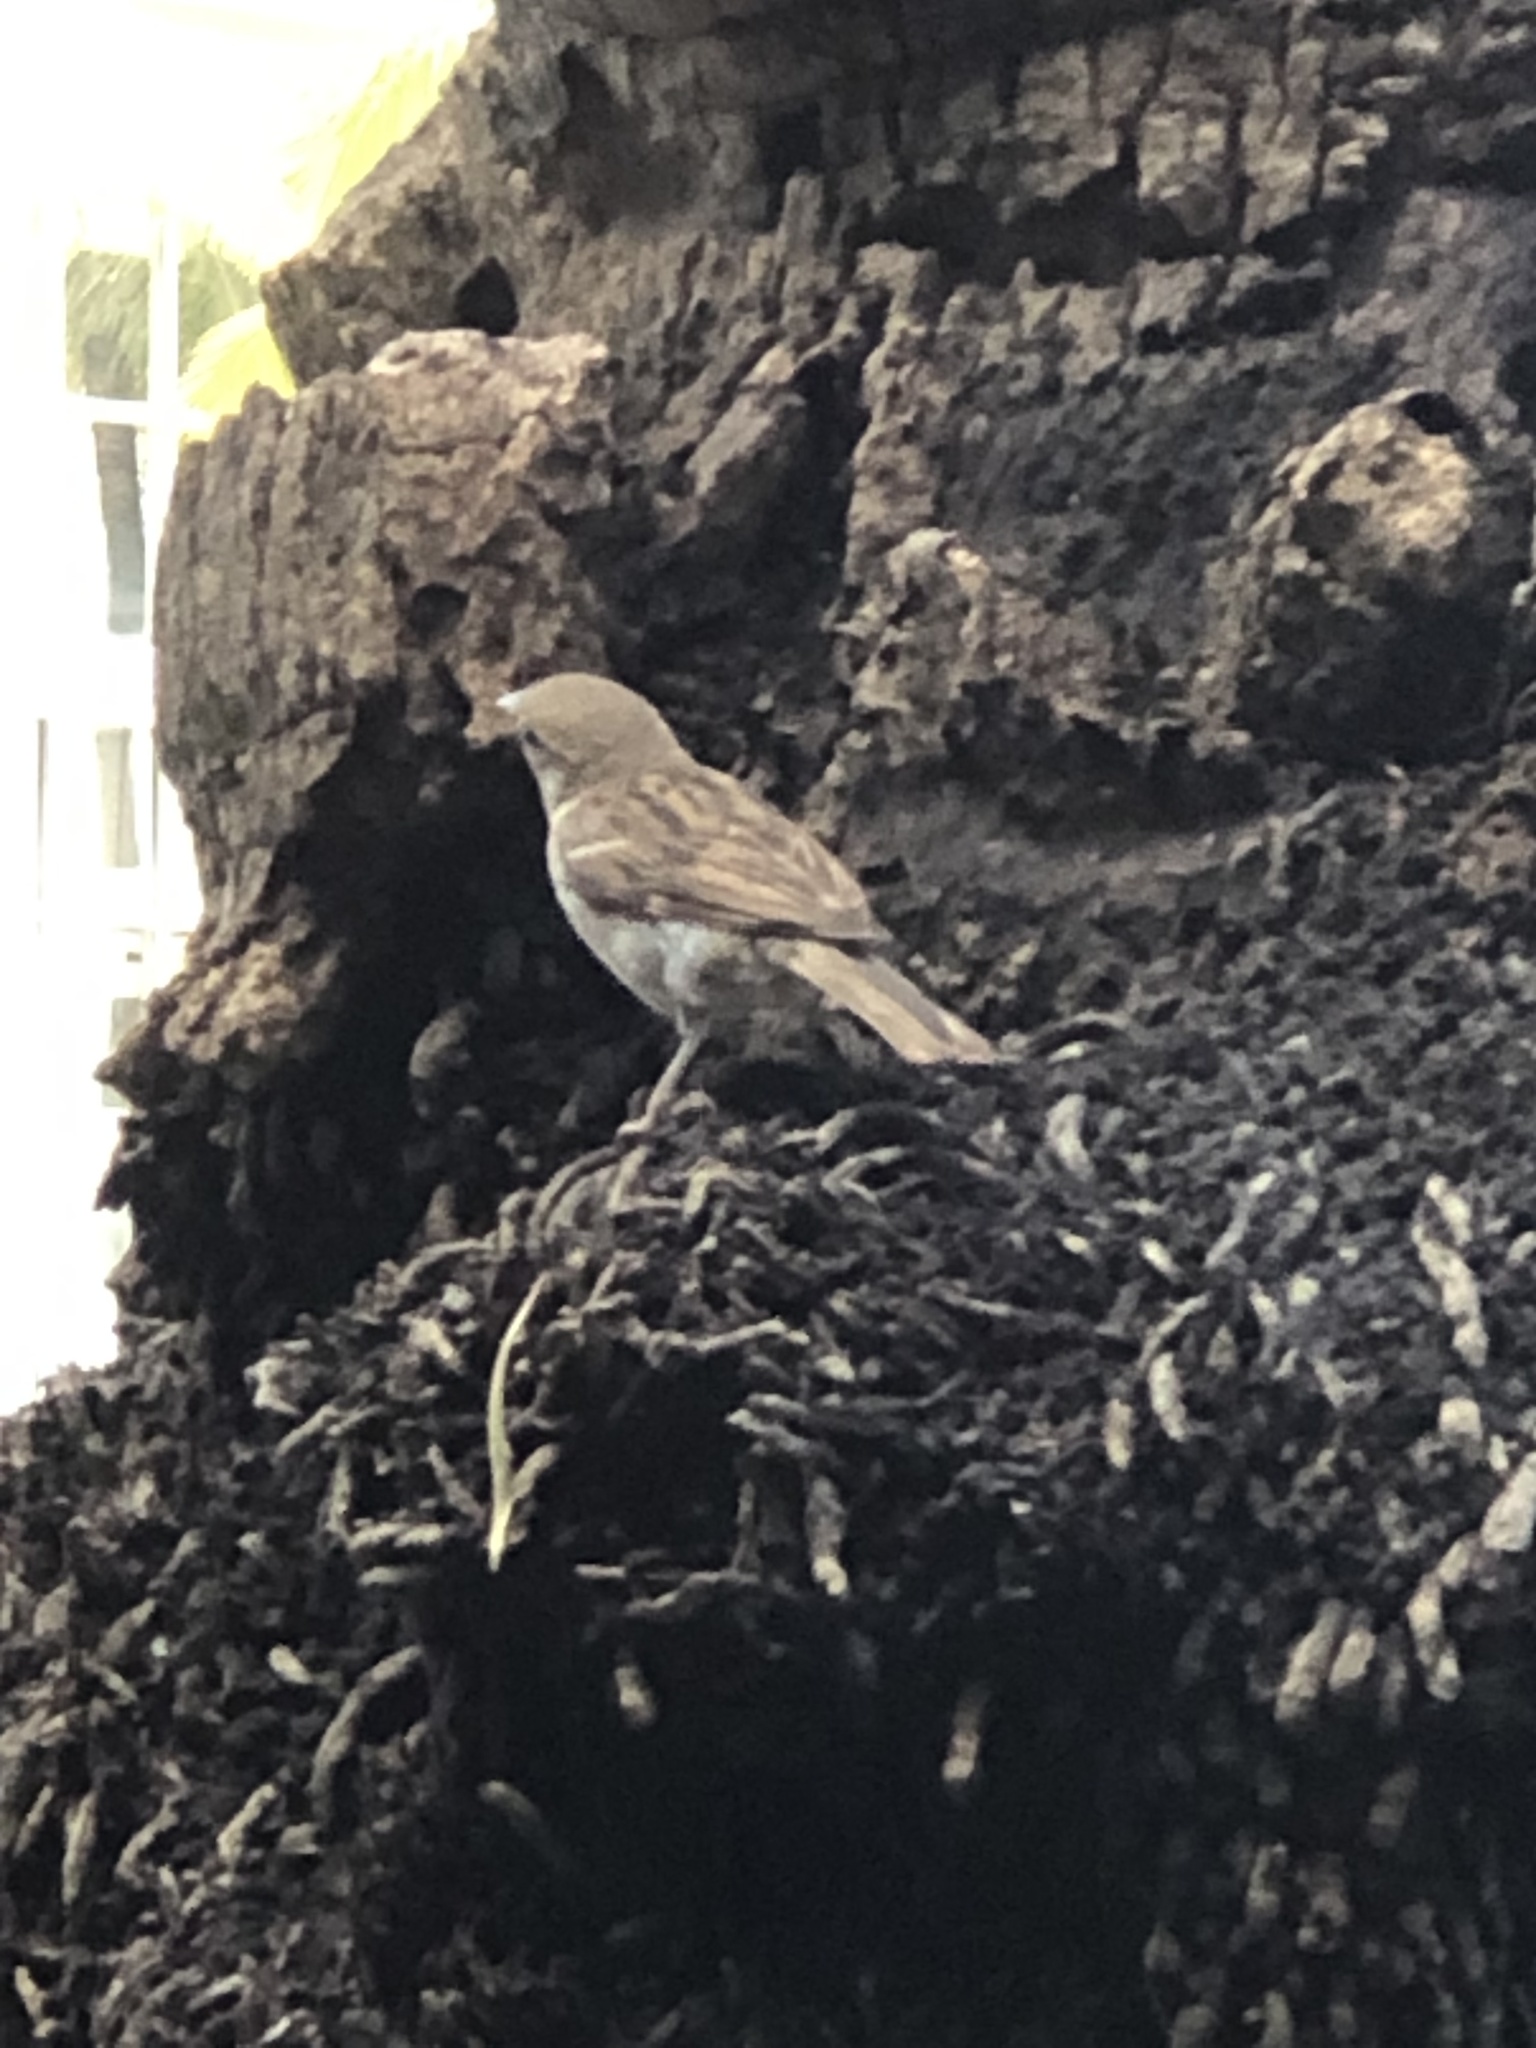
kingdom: Animalia
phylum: Chordata
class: Aves
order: Passeriformes
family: Passeridae
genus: Passer
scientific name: Passer domesticus
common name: House sparrow
